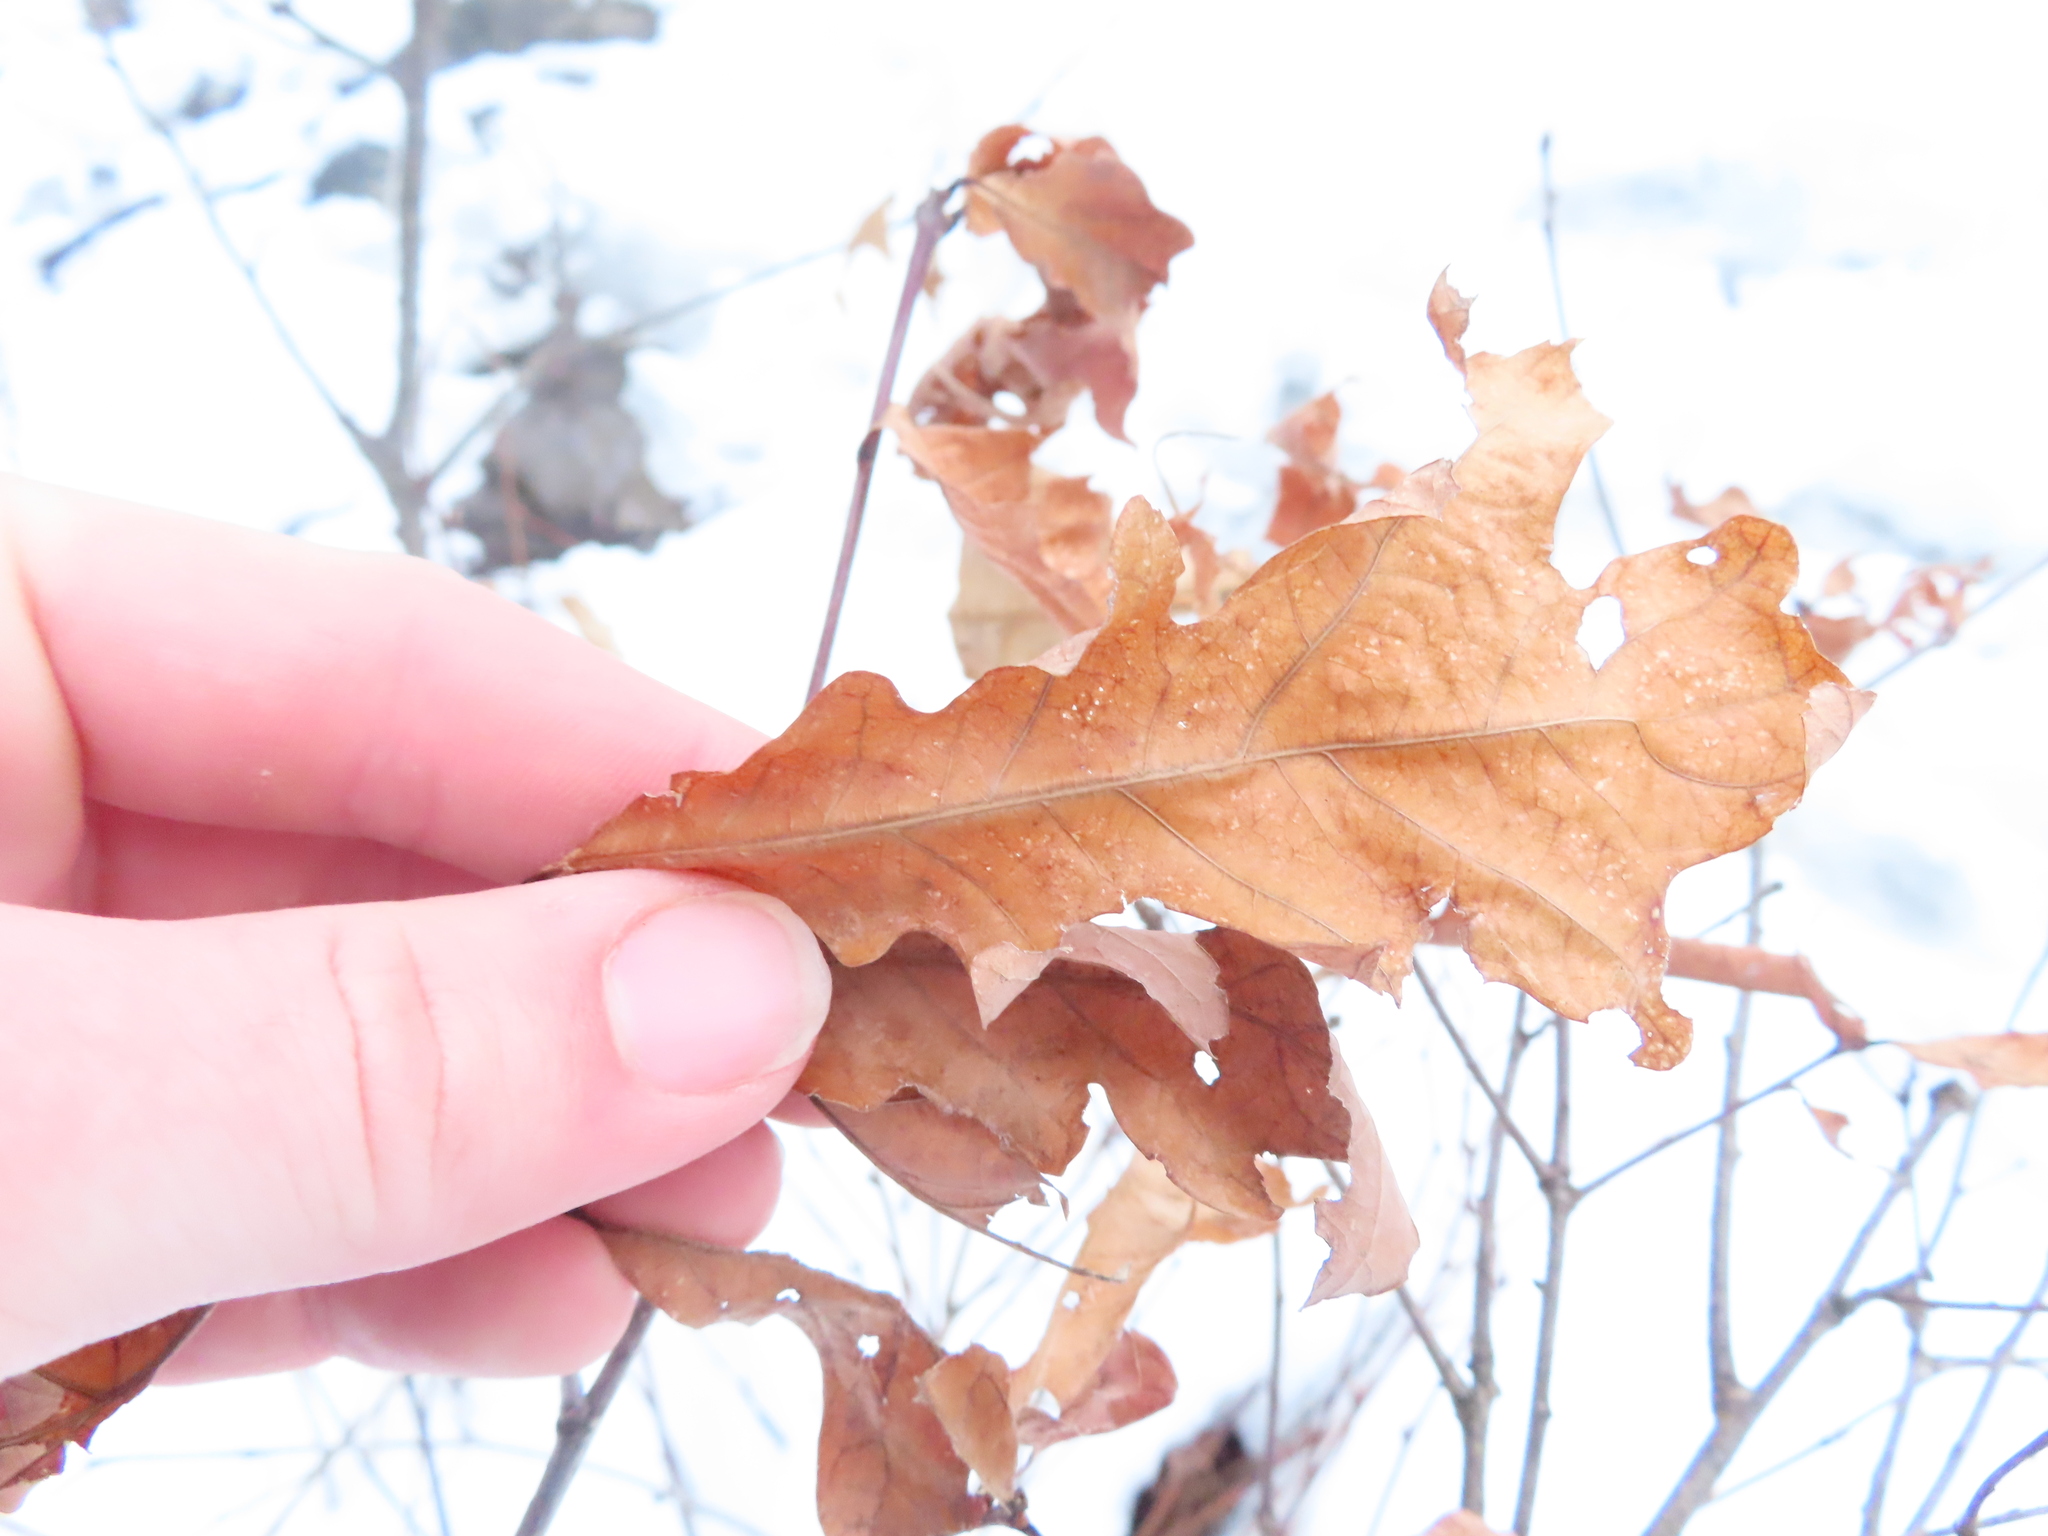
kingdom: Plantae
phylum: Tracheophyta
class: Magnoliopsida
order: Fagales
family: Fagaceae
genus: Quercus
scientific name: Quercus macrocarpa
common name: Bur oak
